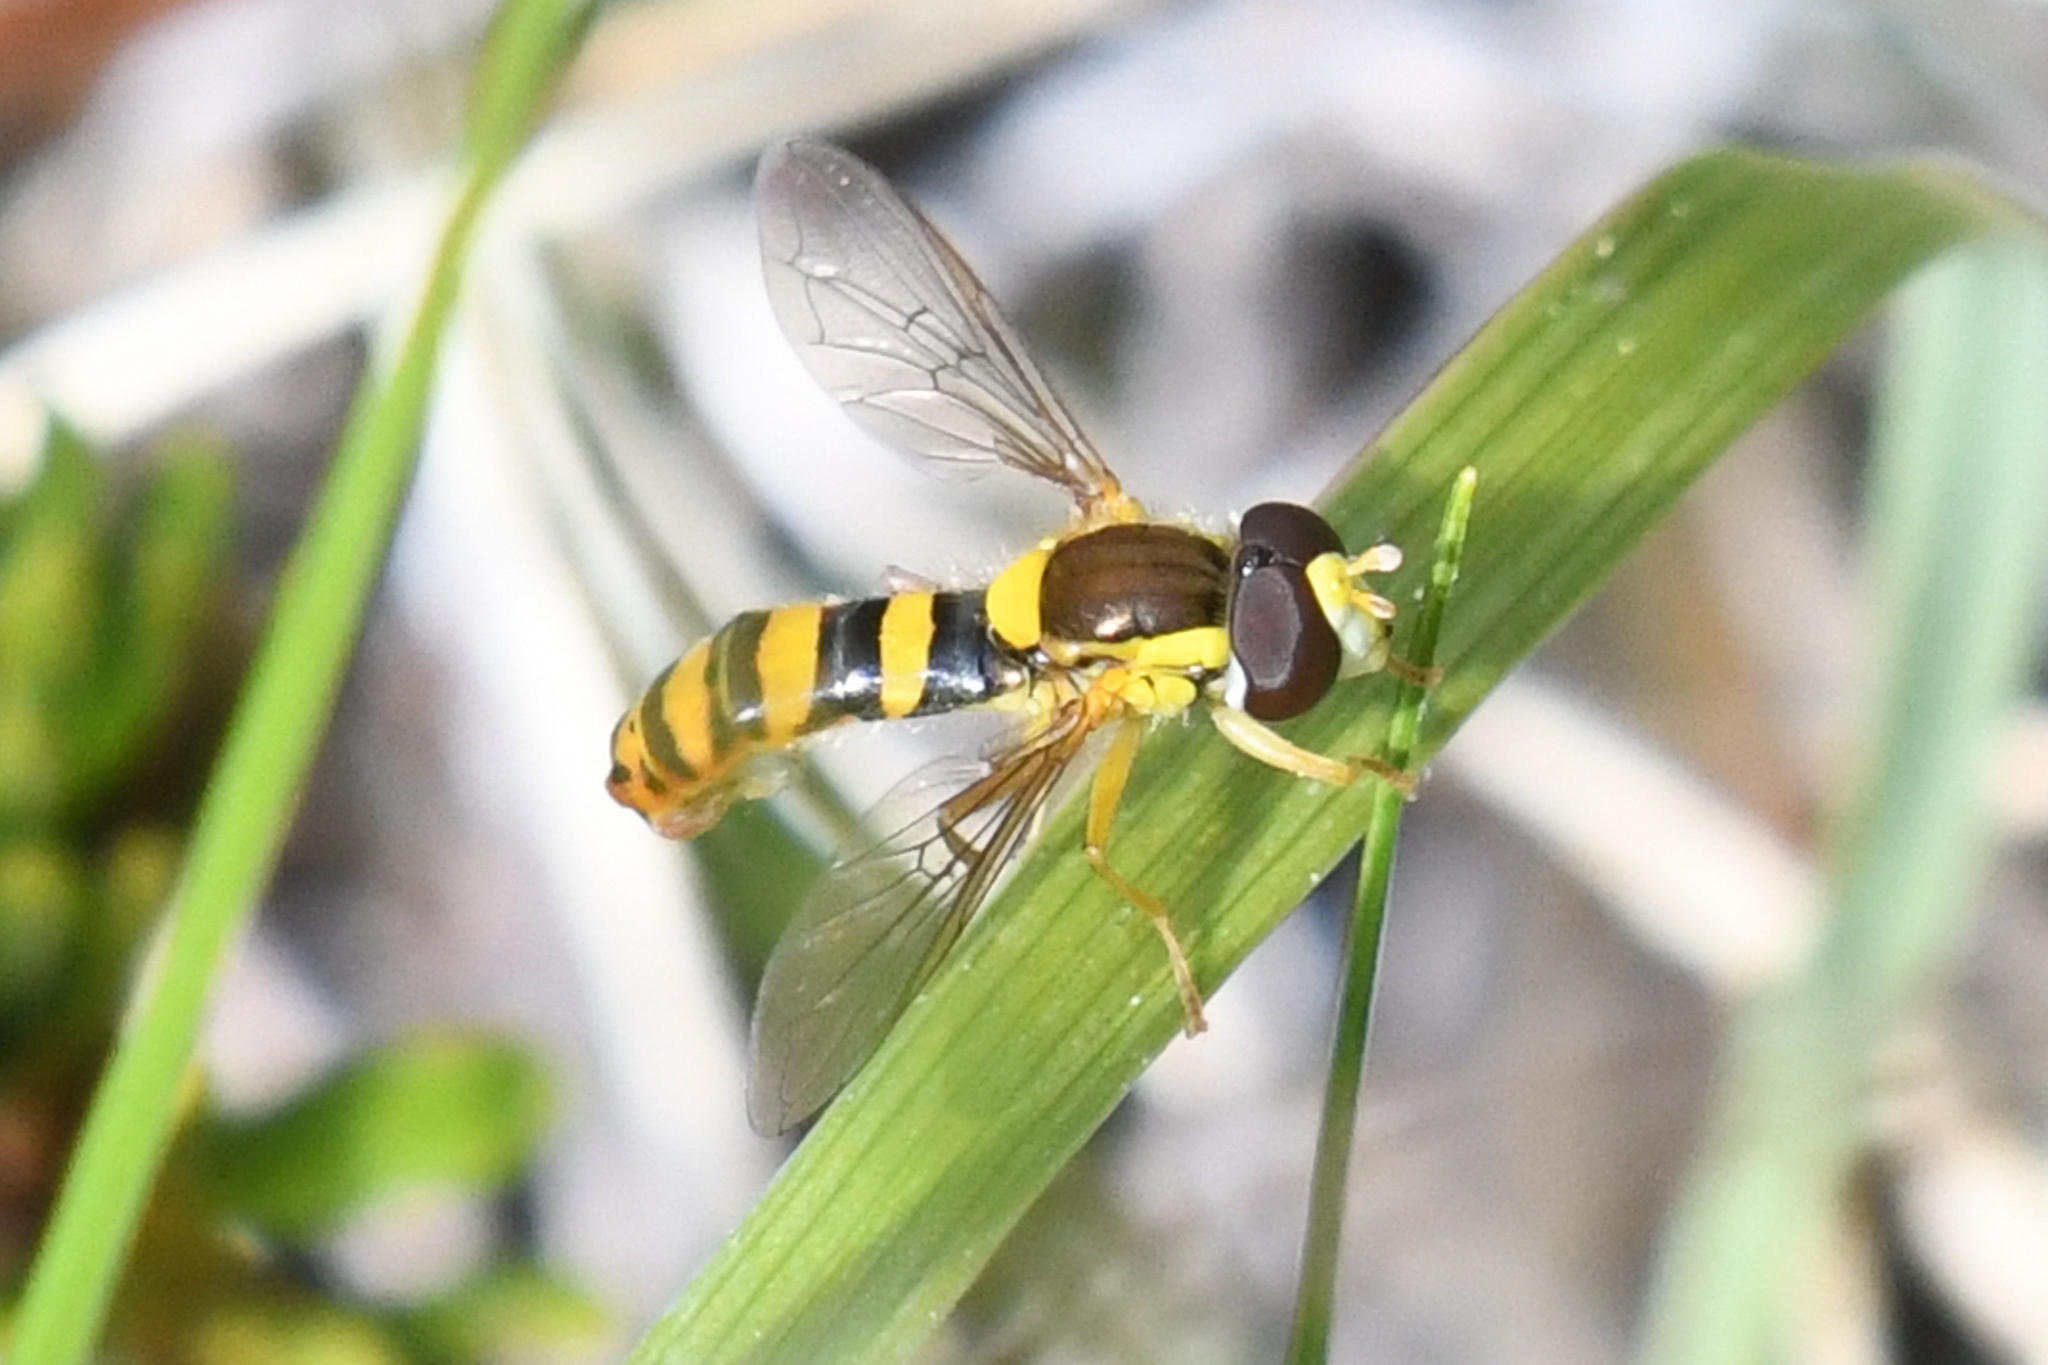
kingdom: Animalia
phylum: Arthropoda
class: Insecta
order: Diptera
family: Syrphidae
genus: Sphaerophoria
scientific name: Sphaerophoria philantha
